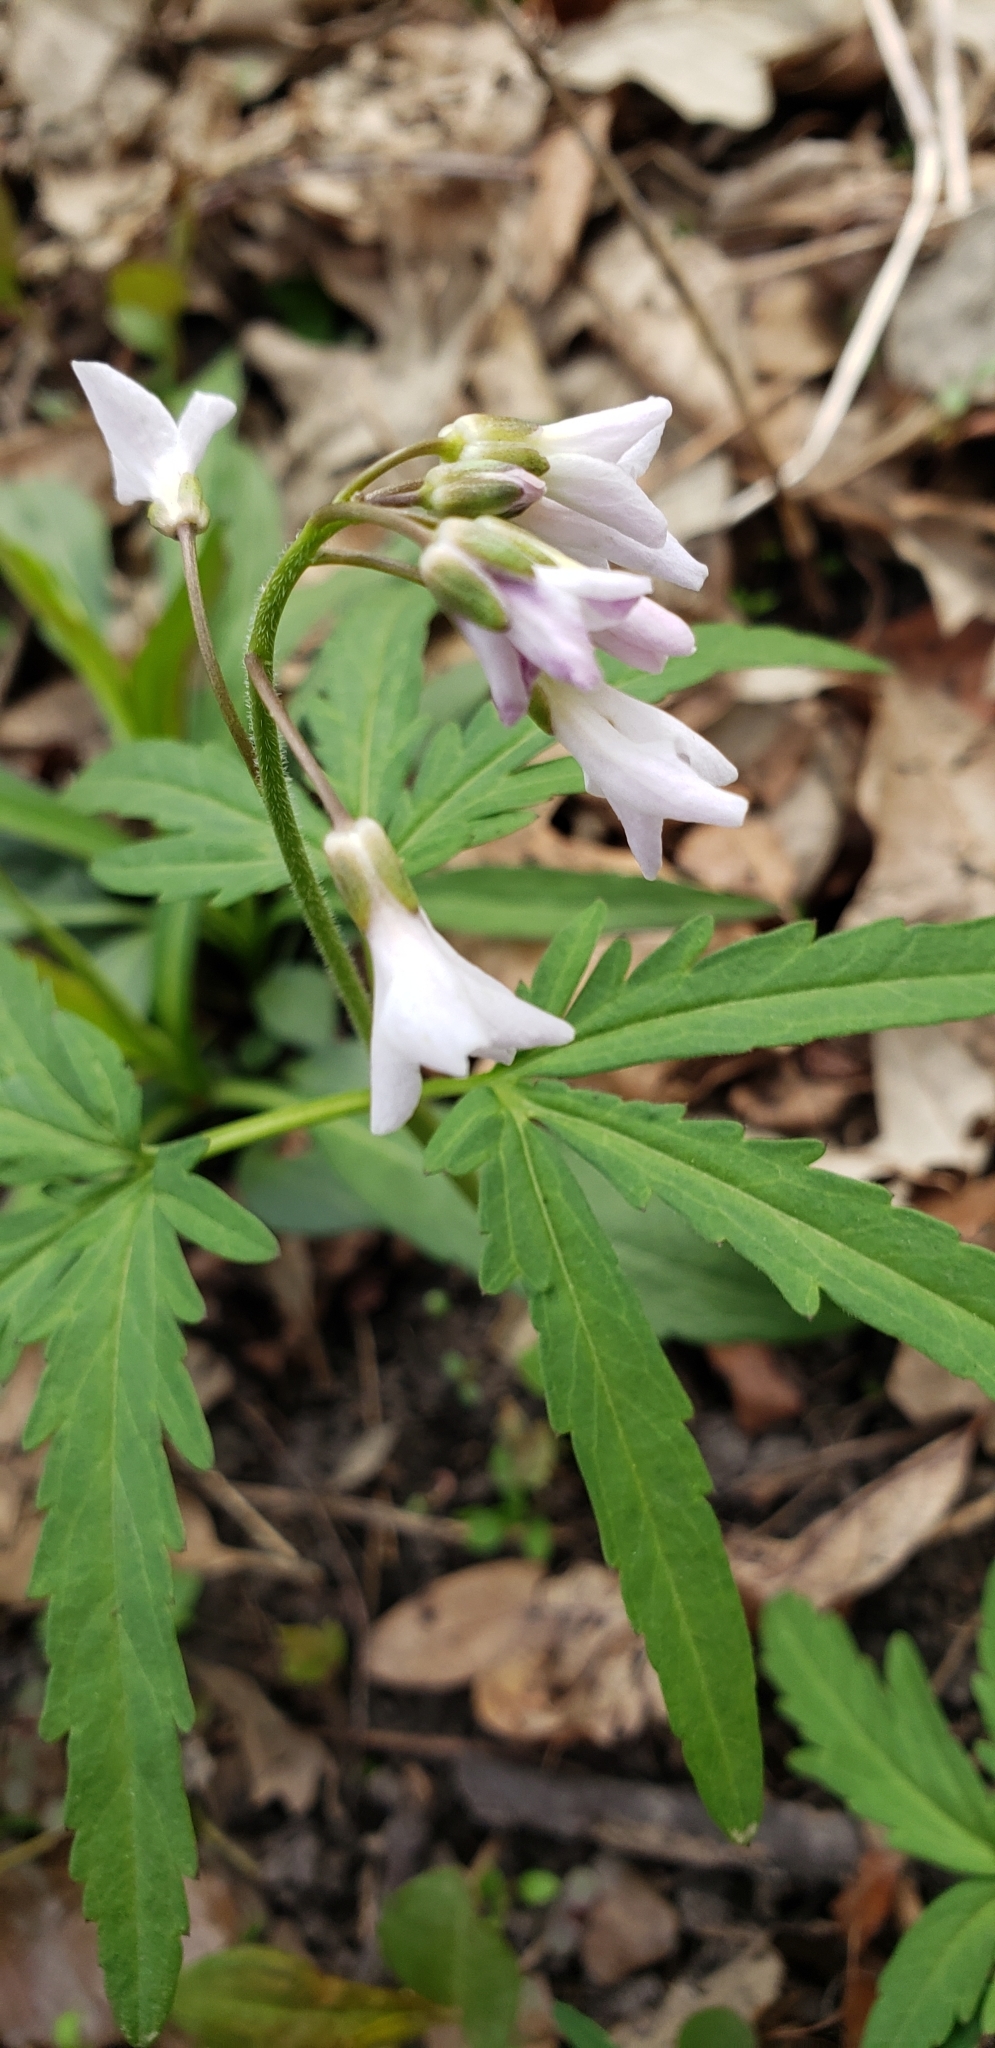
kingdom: Plantae
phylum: Tracheophyta
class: Magnoliopsida
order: Brassicales
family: Brassicaceae
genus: Cardamine
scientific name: Cardamine concatenata
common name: Cut-leaf toothcup
